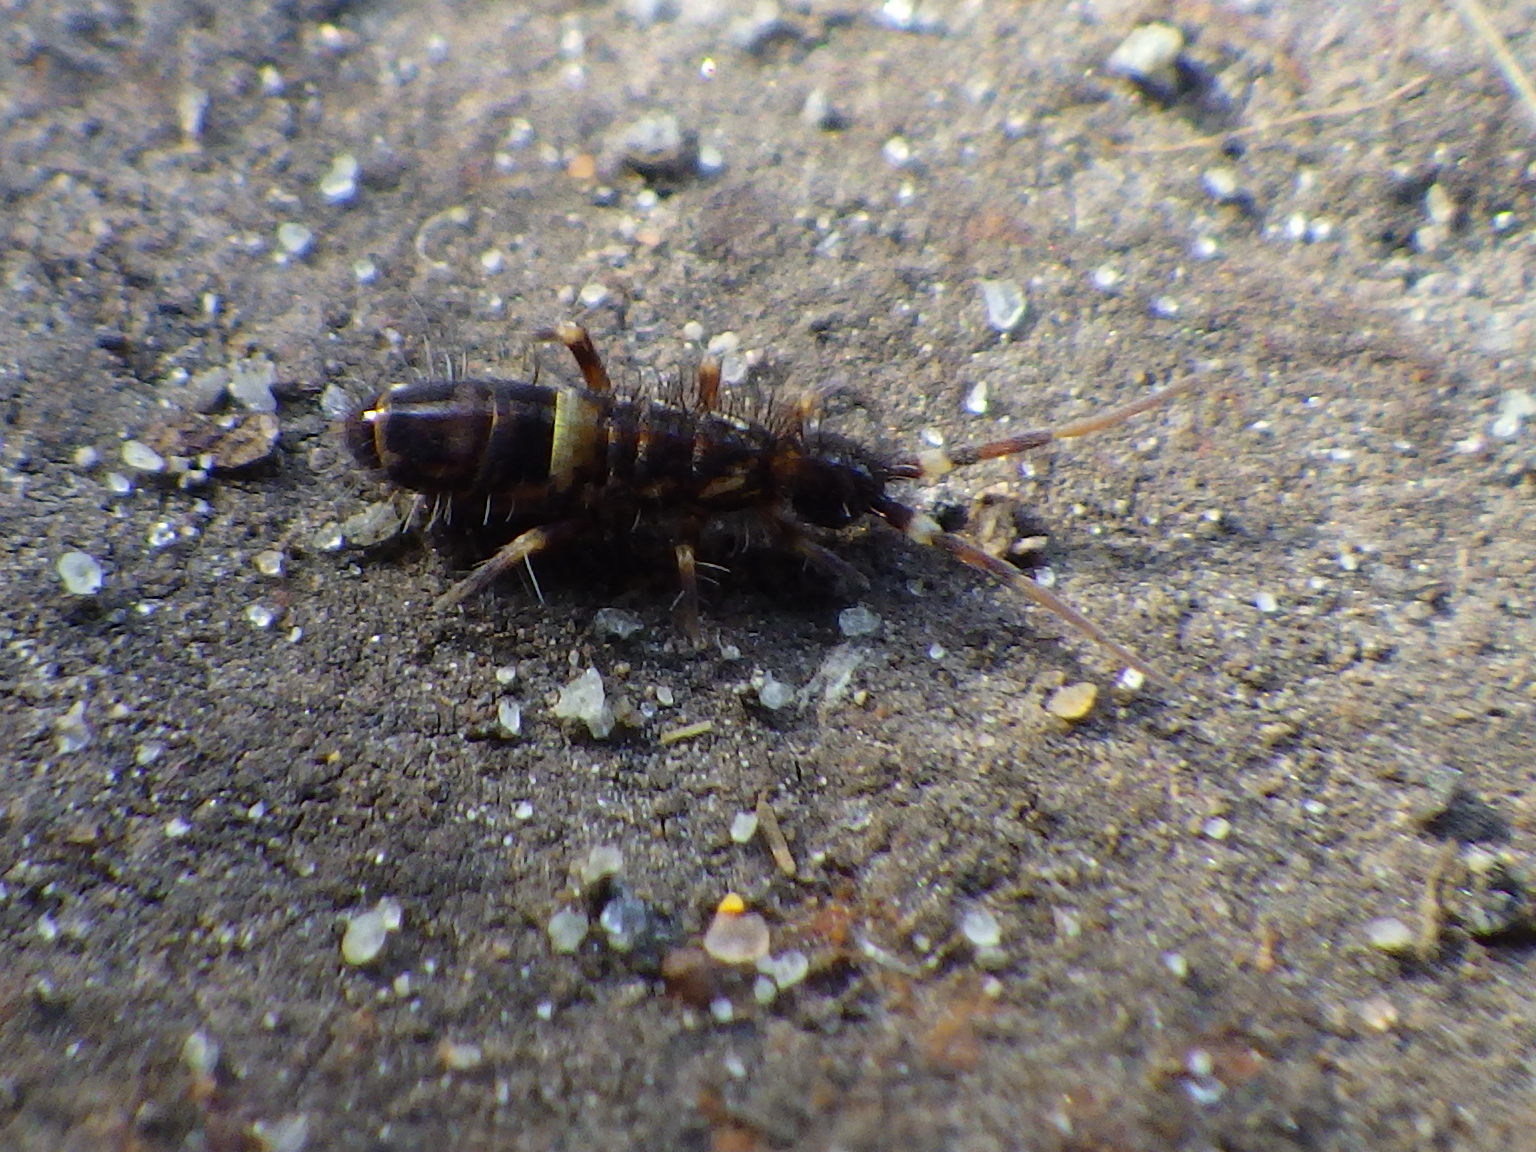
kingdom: Animalia
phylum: Arthropoda
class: Collembola
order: Entomobryomorpha
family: Orchesellidae
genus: Orchesella
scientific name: Orchesella cincta
